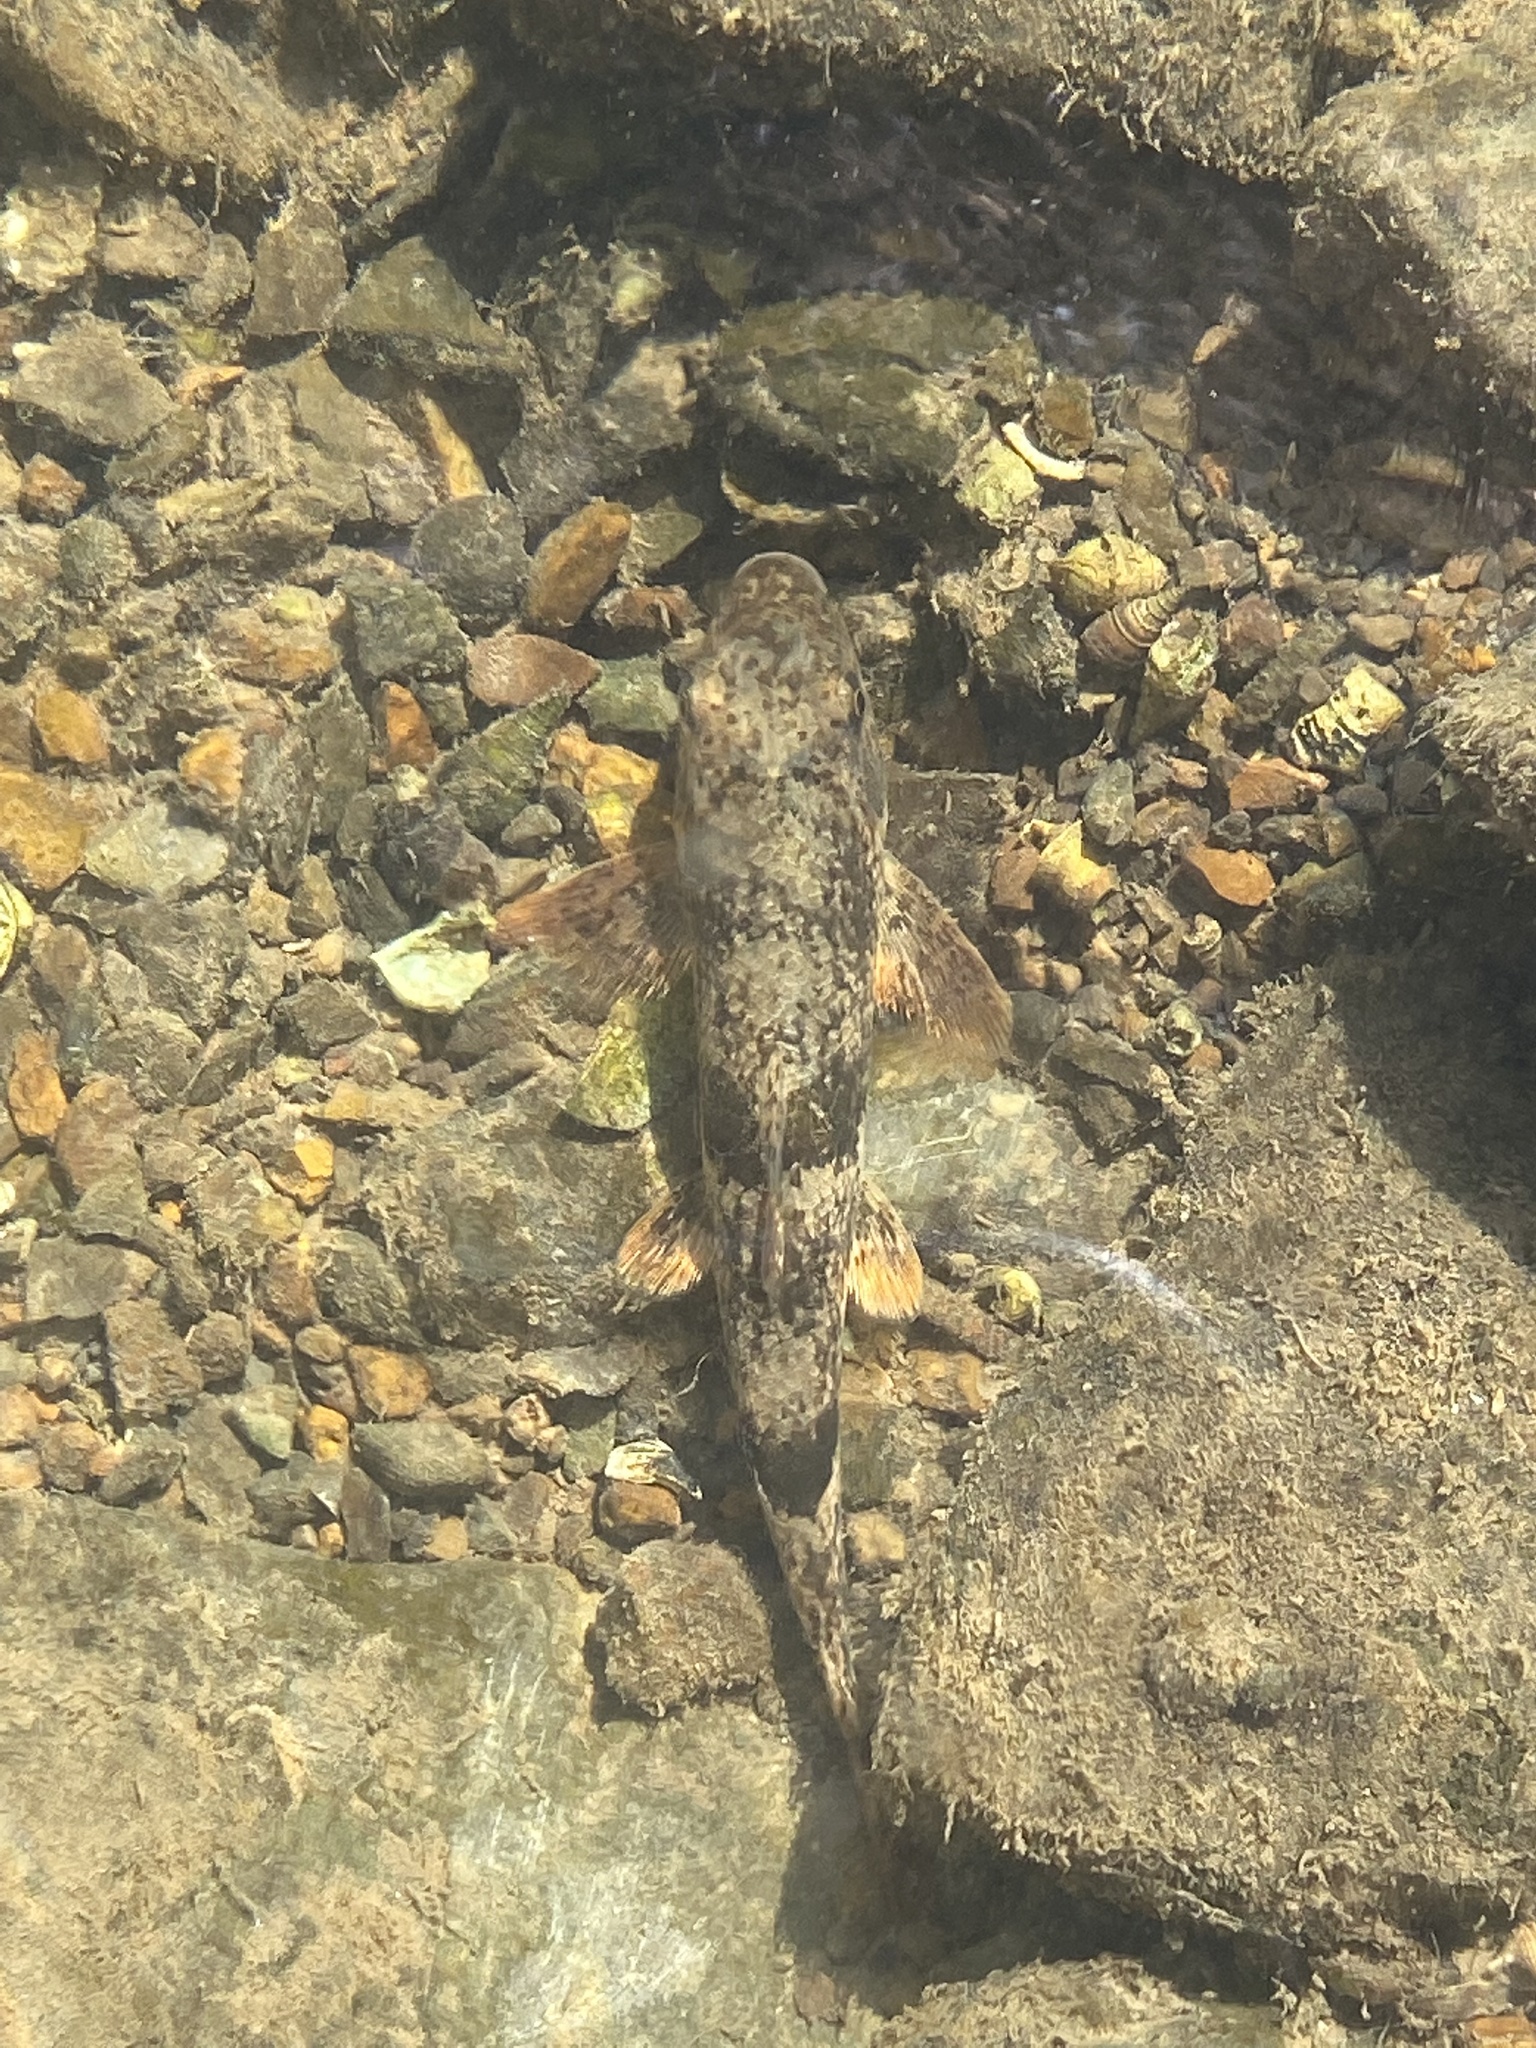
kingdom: Animalia
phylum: Chordata
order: Cypriniformes
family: Catostomidae
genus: Hypentelium
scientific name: Hypentelium nigricans
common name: Northern hog sucker
